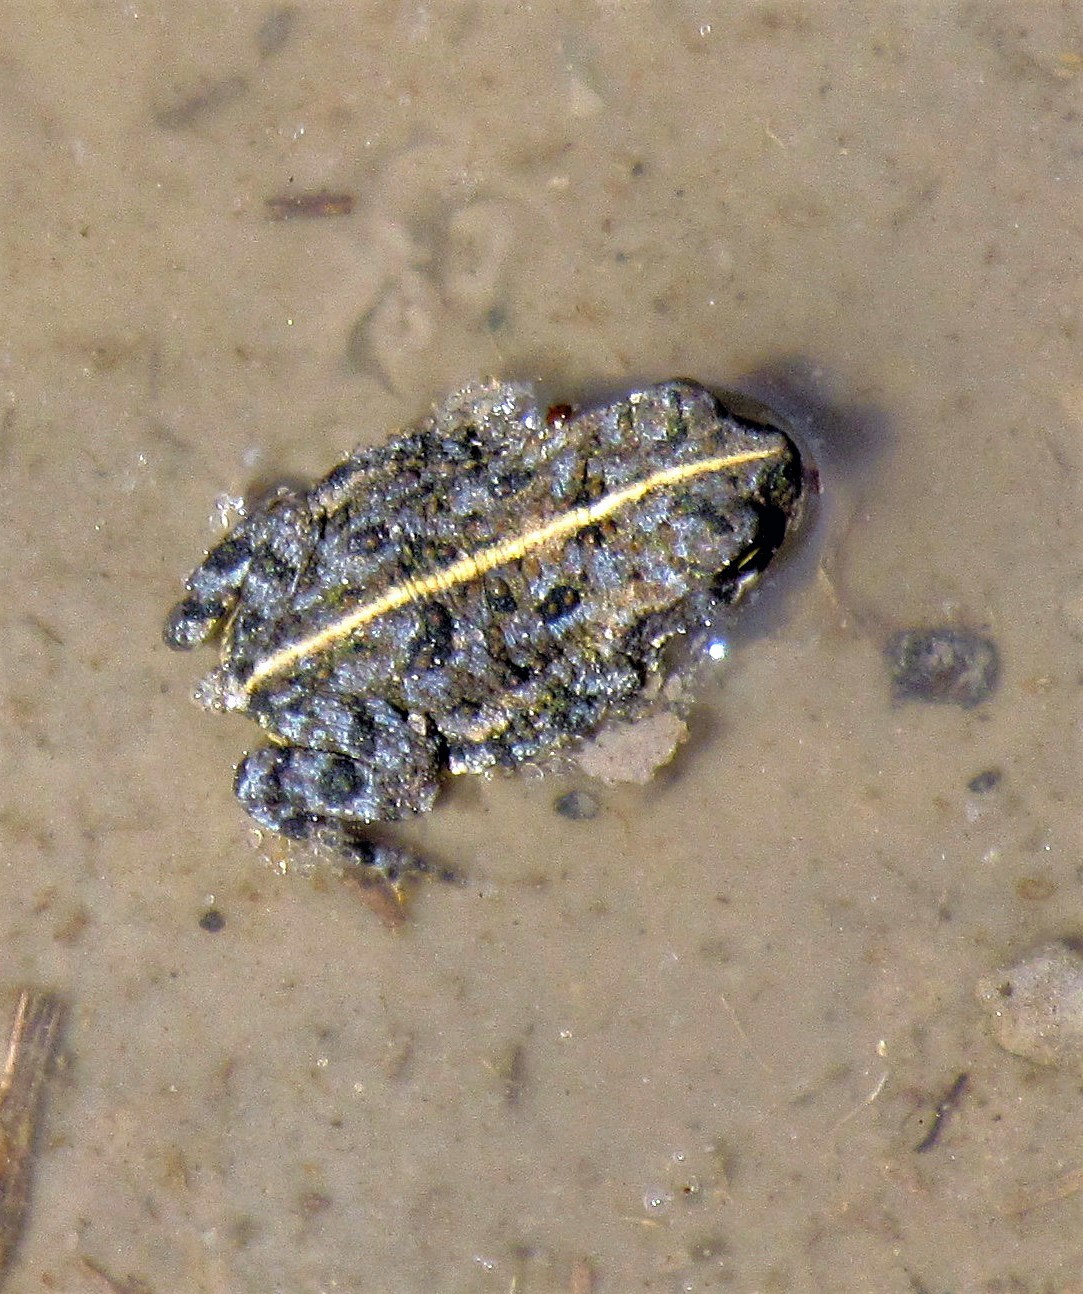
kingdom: Animalia
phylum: Chordata
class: Amphibia
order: Anura
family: Bufonidae
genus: Rhinella
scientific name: Rhinella dorbignyi
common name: D´orbigny’s toad
